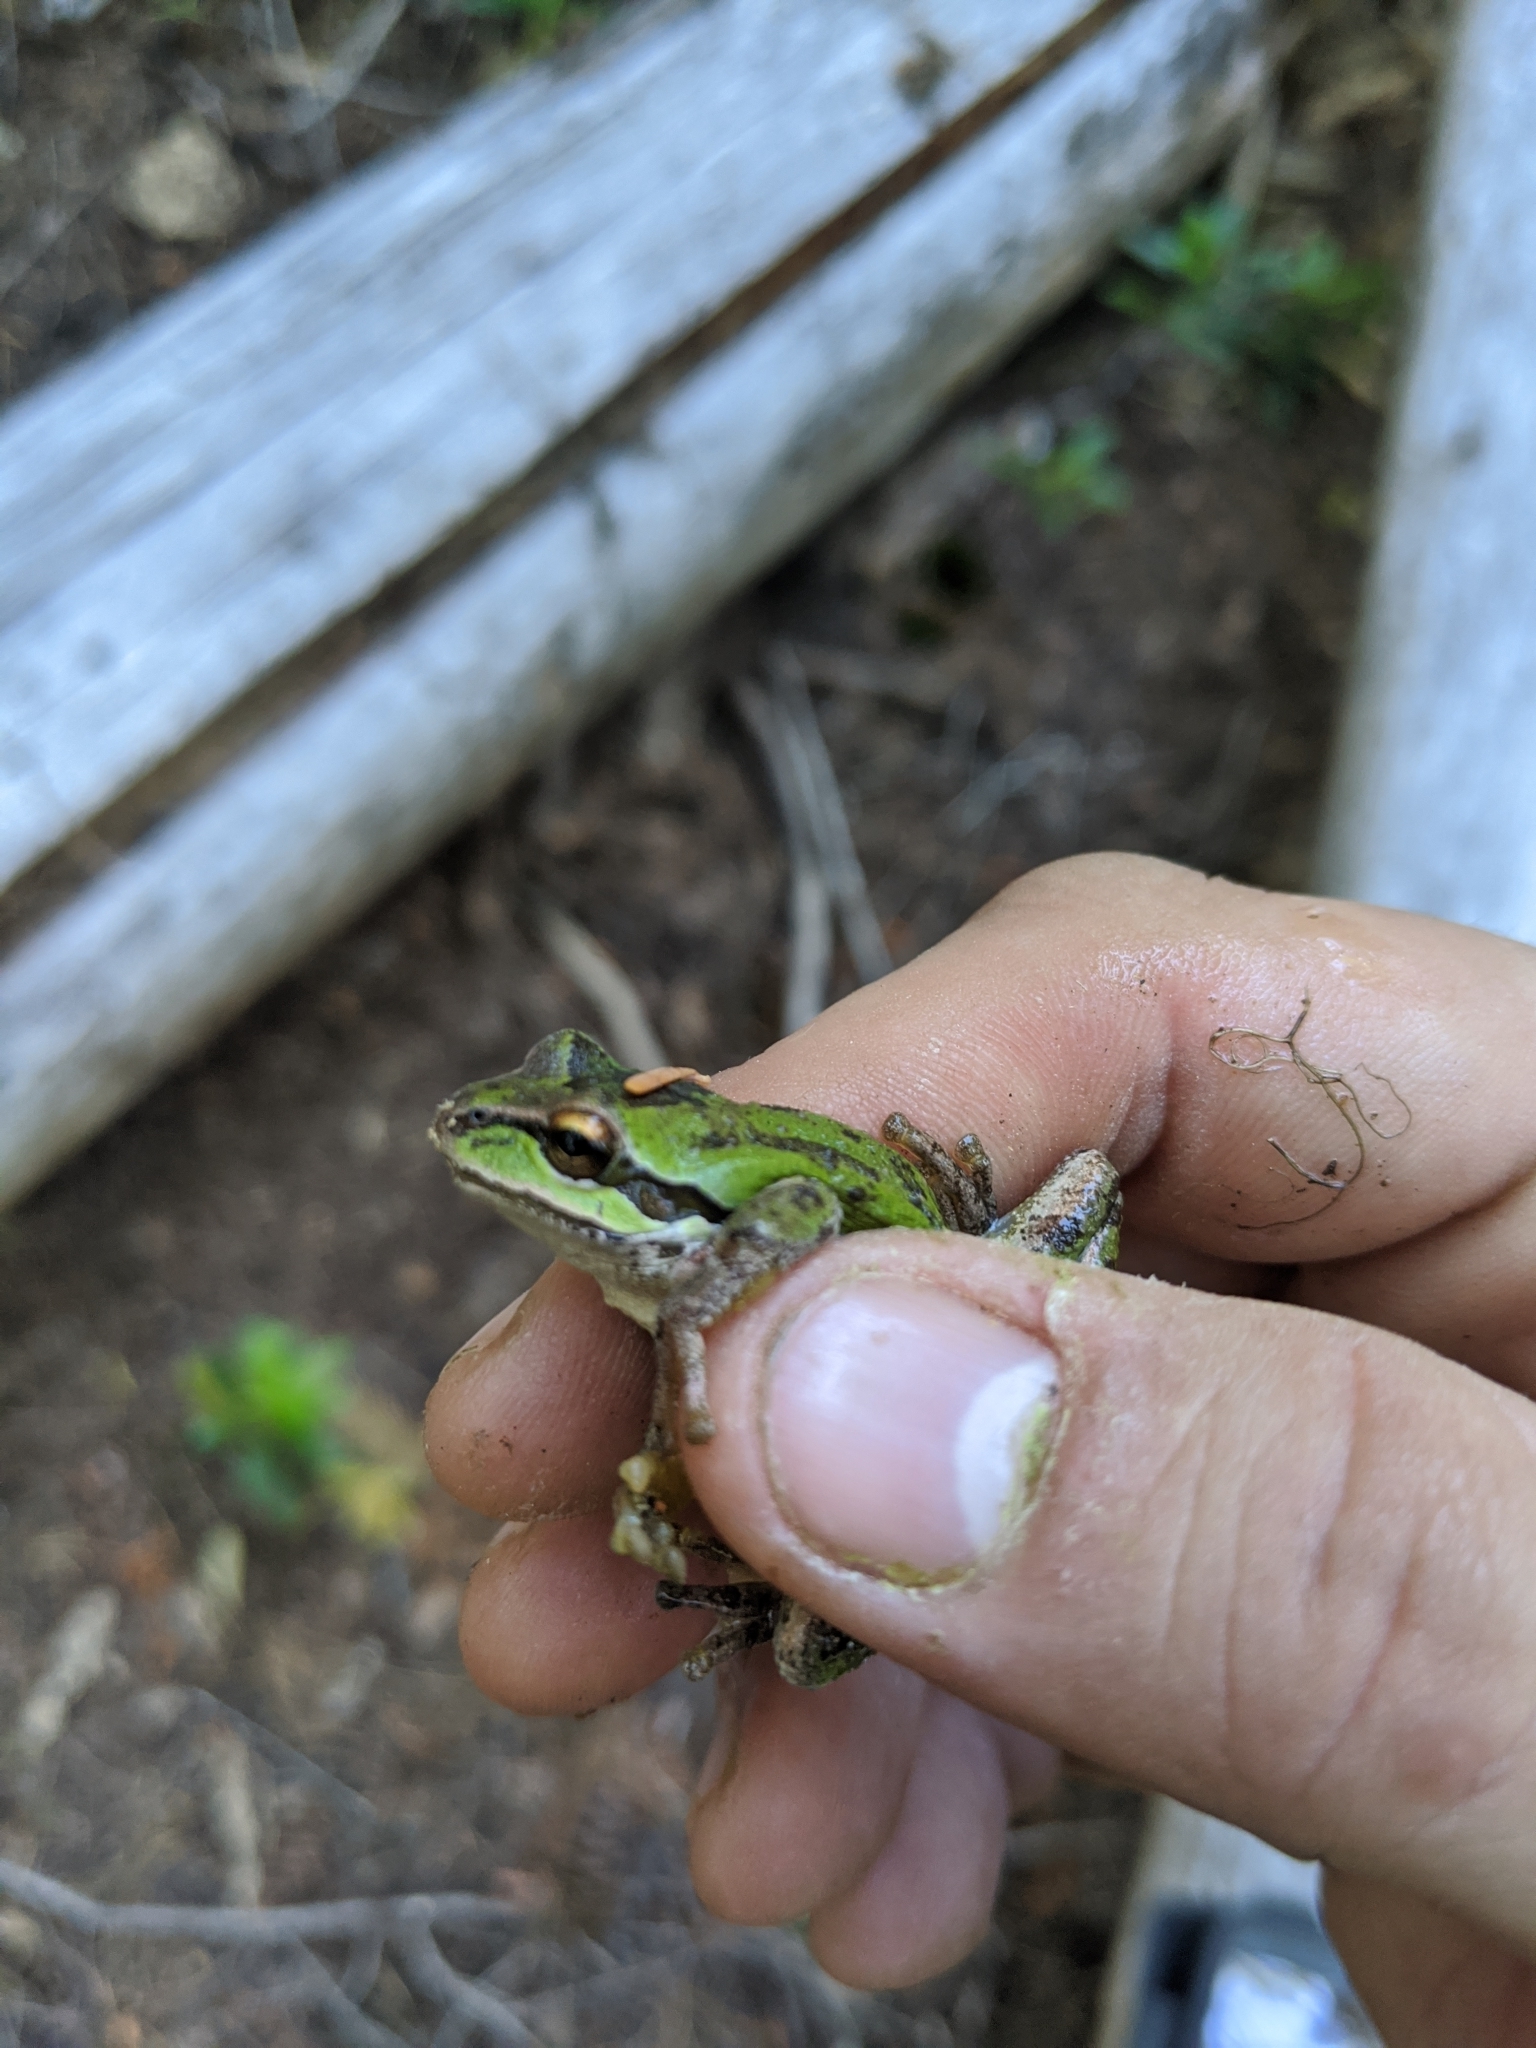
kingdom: Animalia
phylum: Chordata
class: Amphibia
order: Anura
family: Hylidae
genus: Pseudacris
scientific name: Pseudacris regilla
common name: Pacific chorus frog
